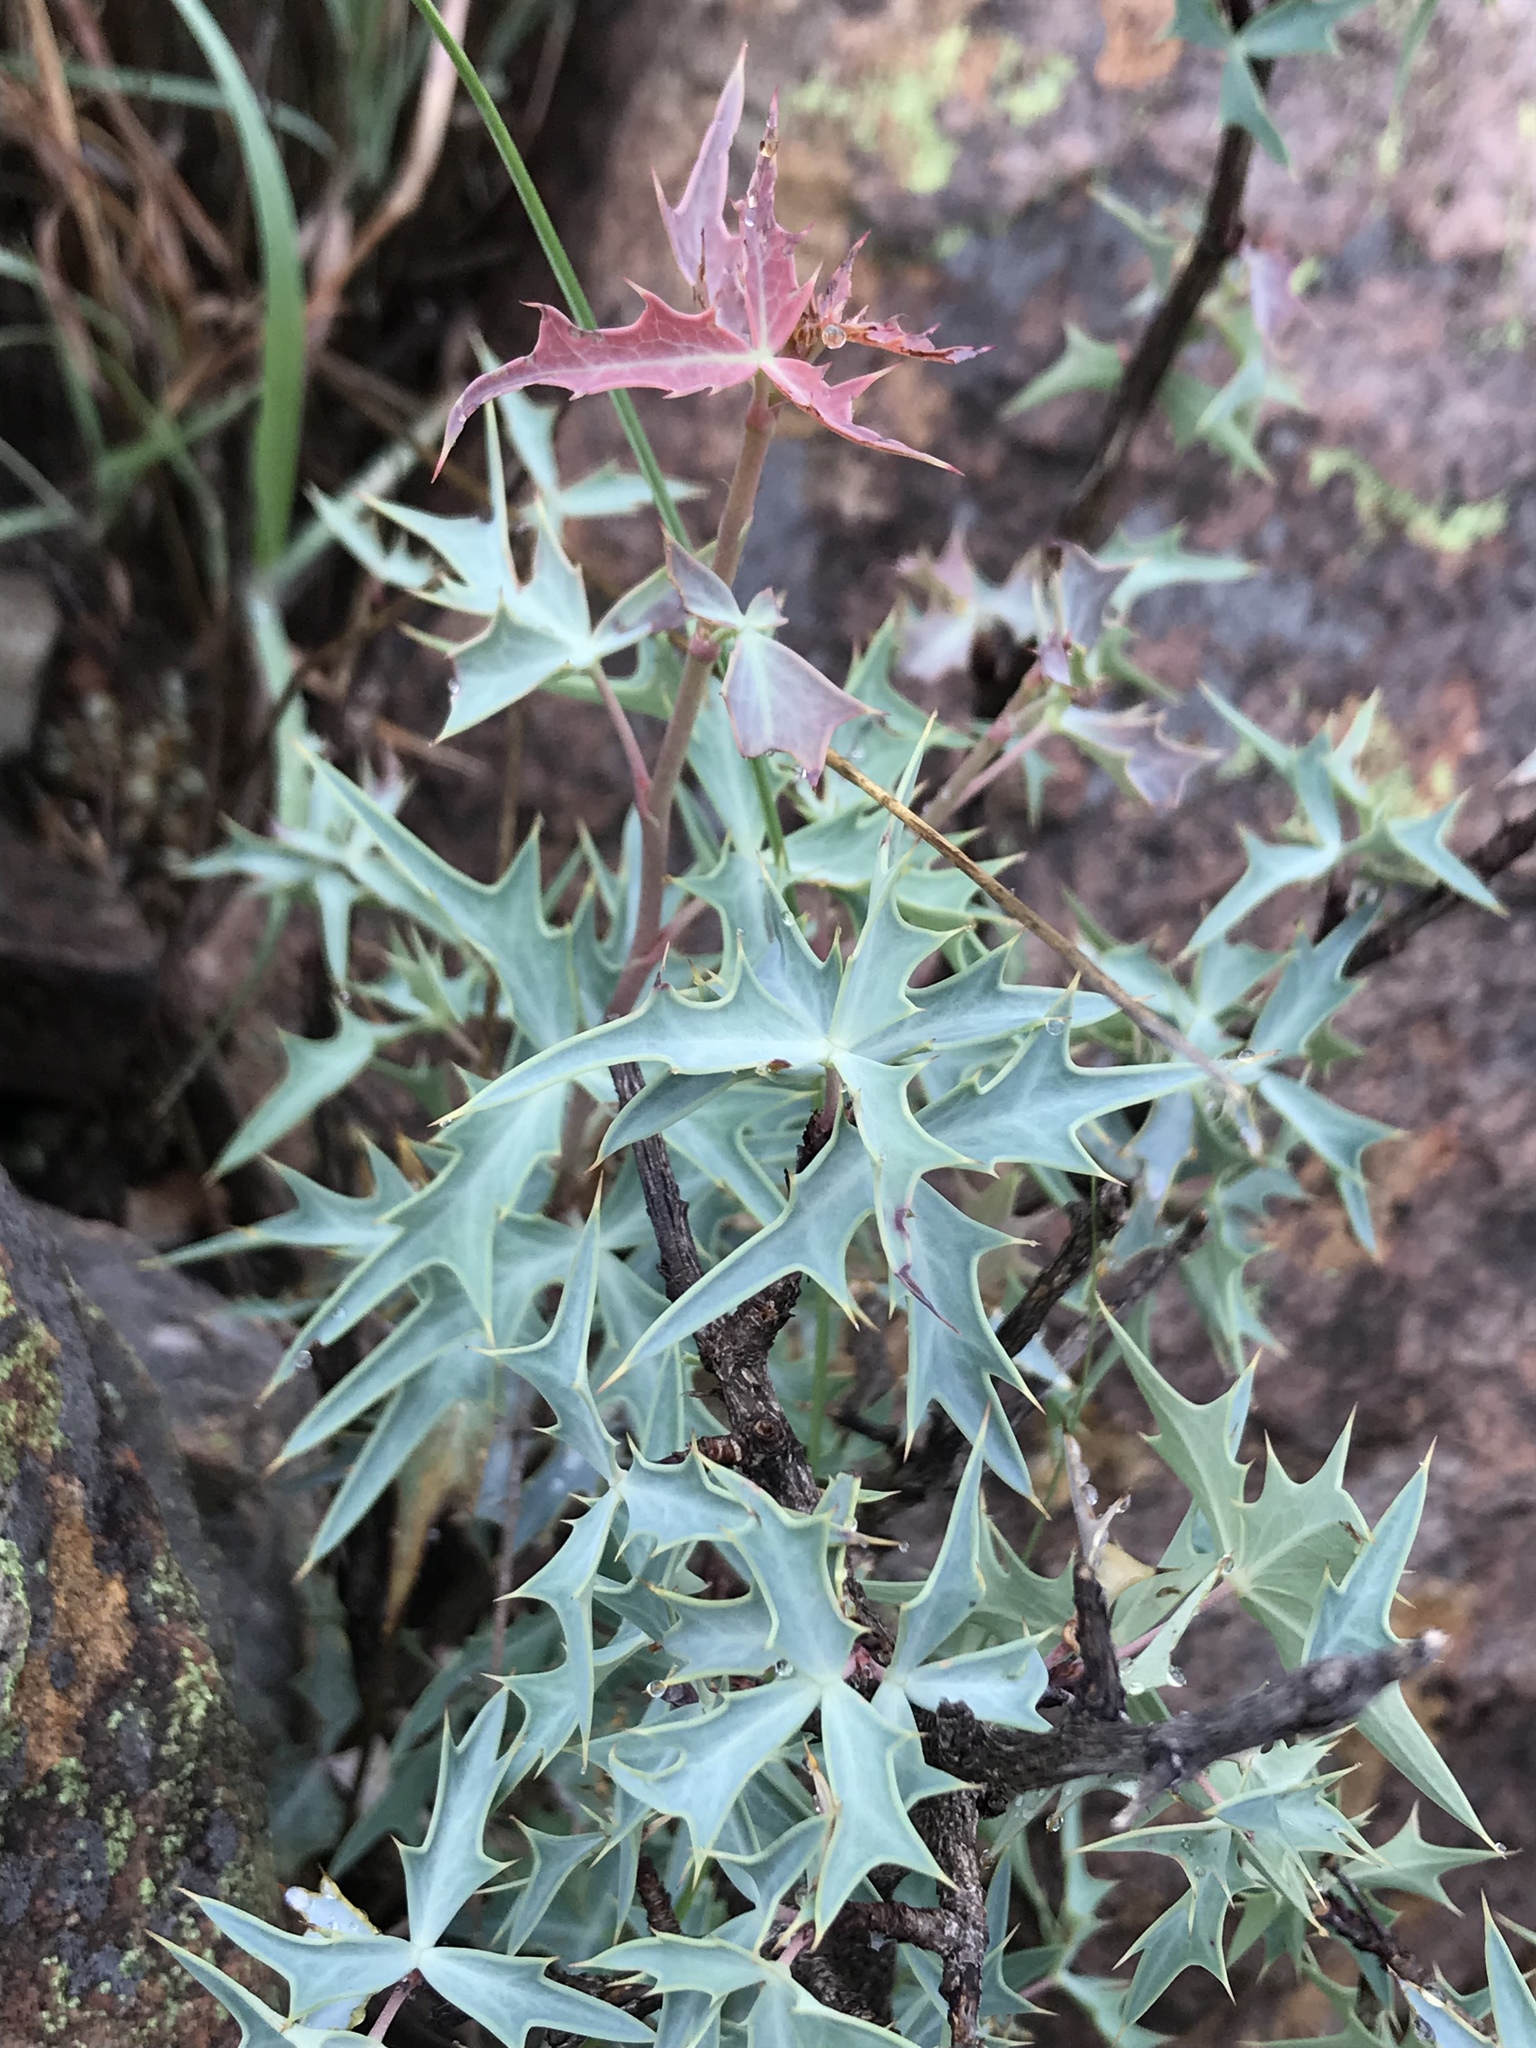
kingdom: Plantae
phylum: Tracheophyta
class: Magnoliopsida
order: Ranunculales
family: Berberidaceae
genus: Alloberberis
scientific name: Alloberberis trifoliolata
